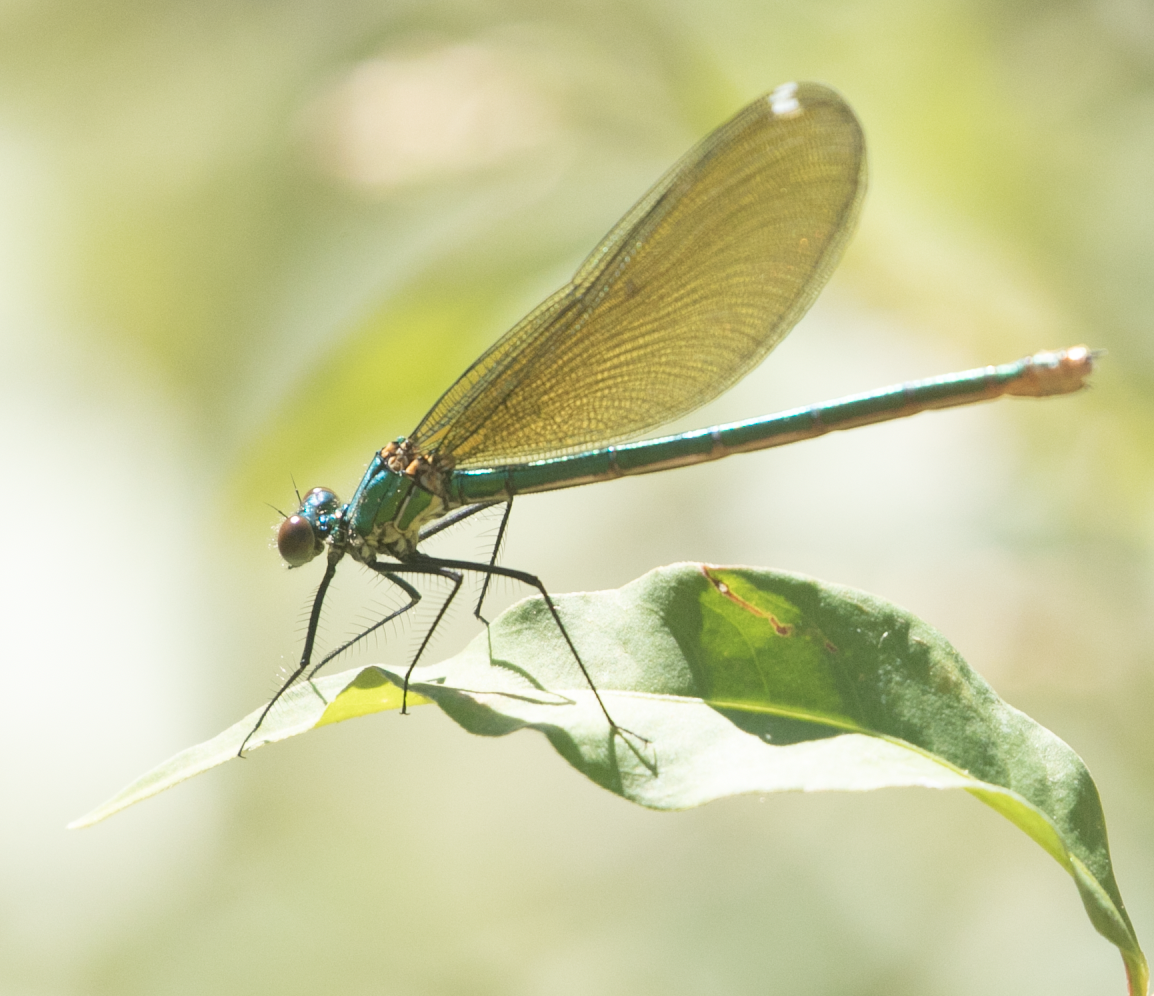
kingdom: Animalia
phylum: Arthropoda
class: Insecta
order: Odonata
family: Calopterygidae
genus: Calopteryx
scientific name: Calopteryx splendens
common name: Banded demoiselle
